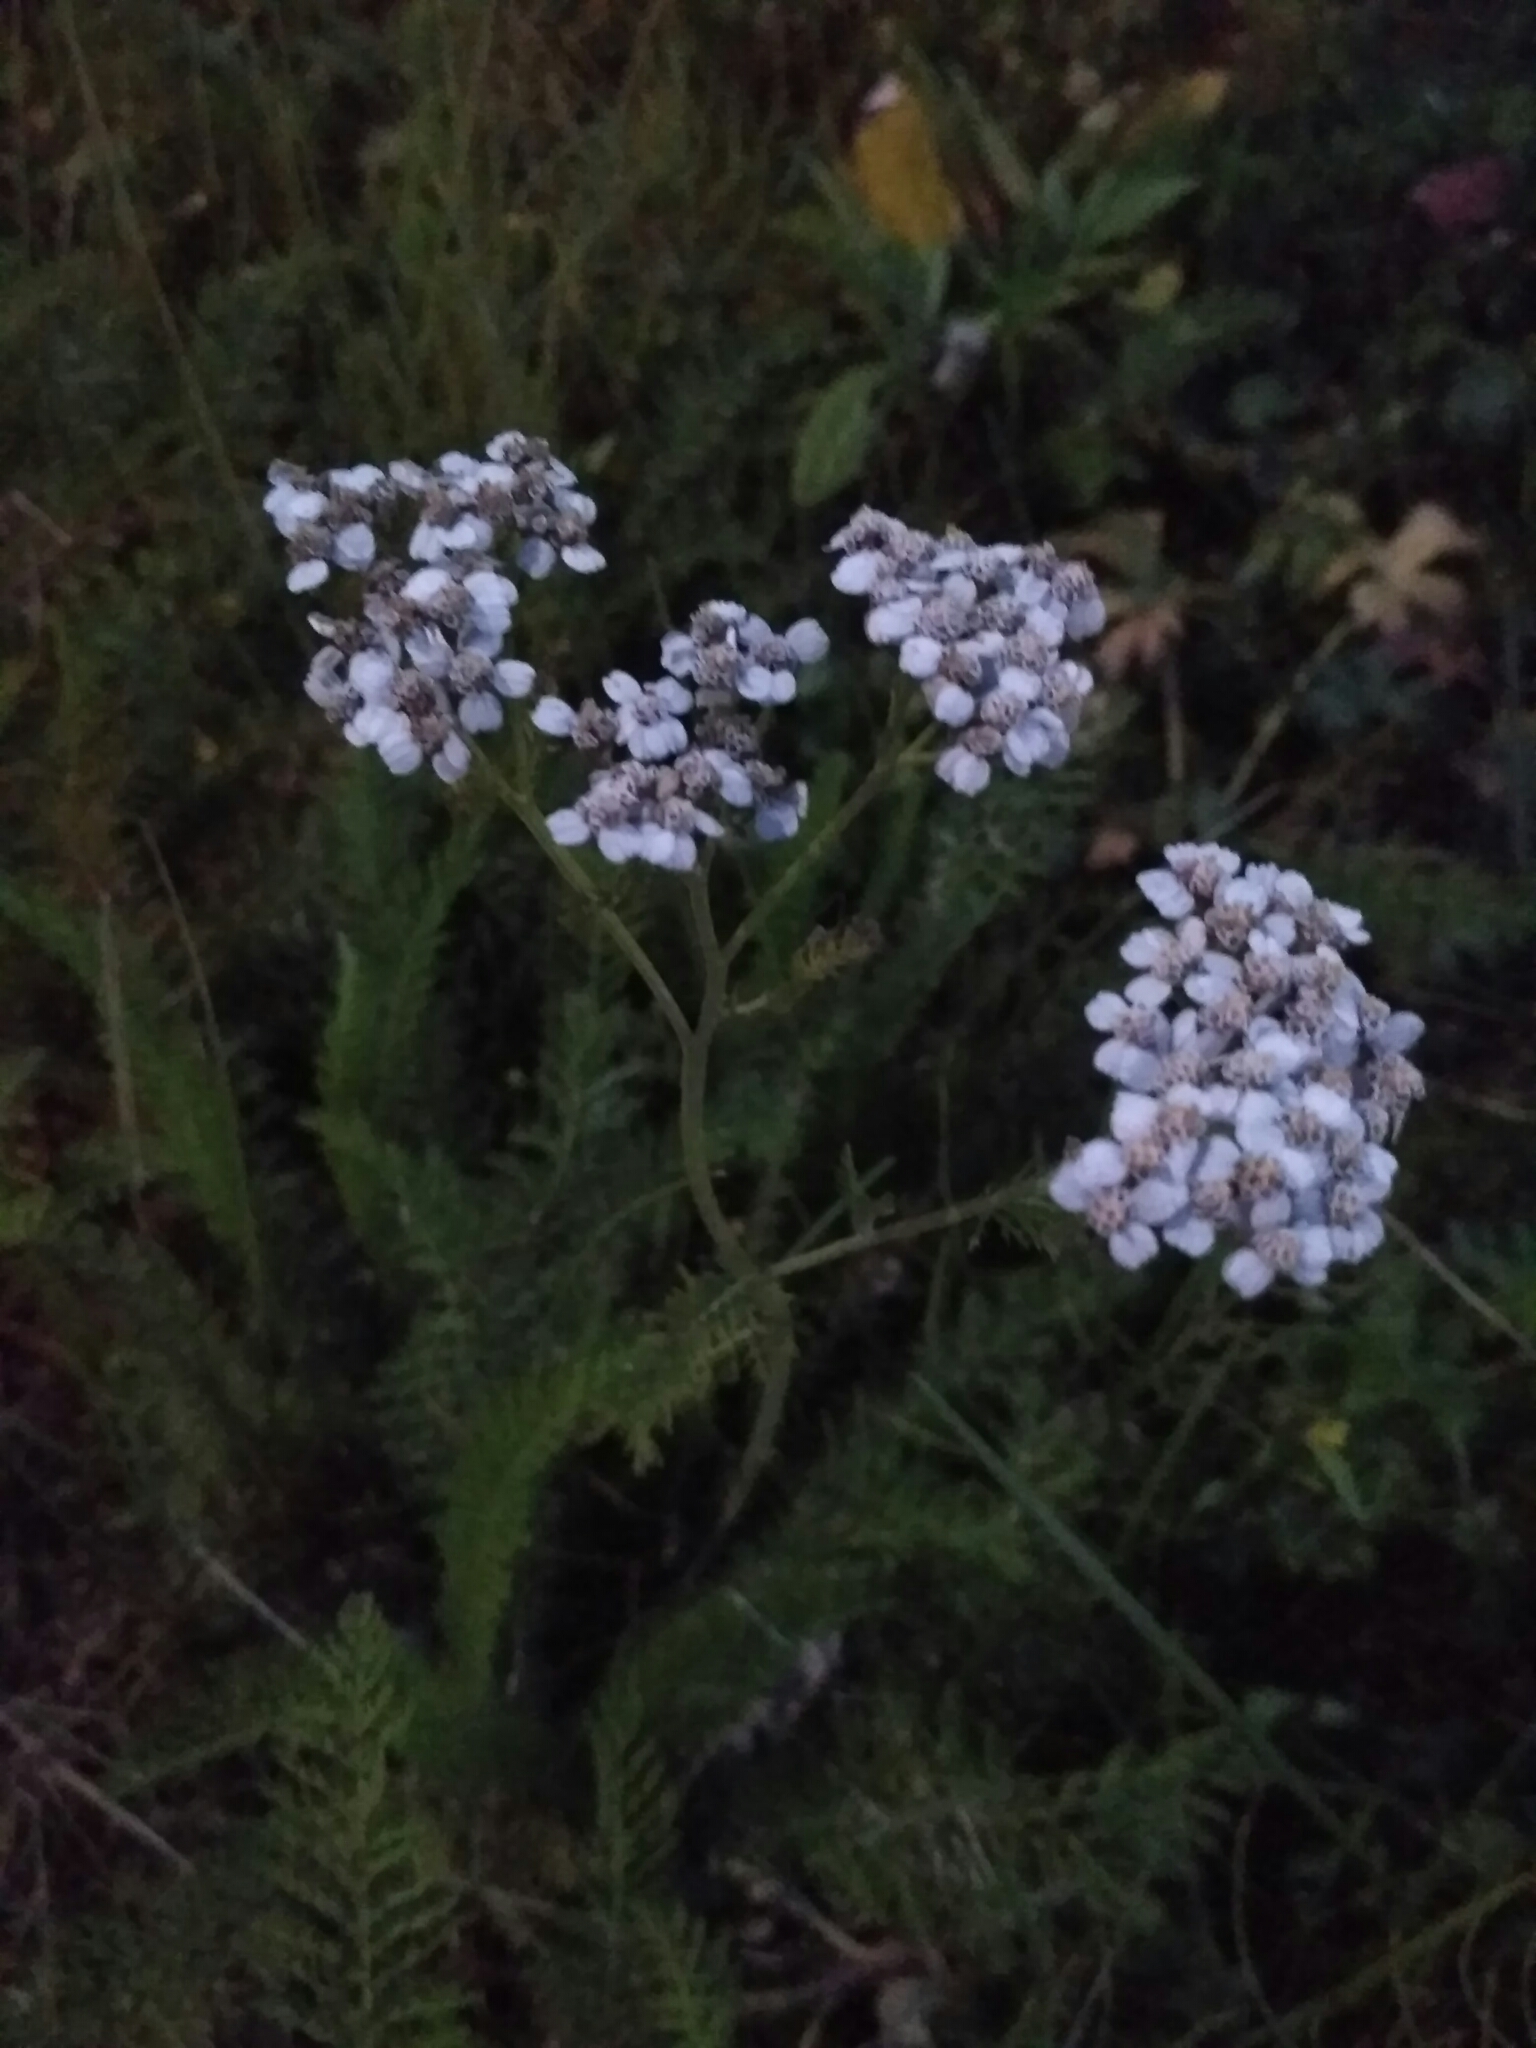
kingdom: Plantae
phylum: Tracheophyta
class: Magnoliopsida
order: Asterales
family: Asteraceae
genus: Achillea
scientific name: Achillea millefolium
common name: Yarrow
